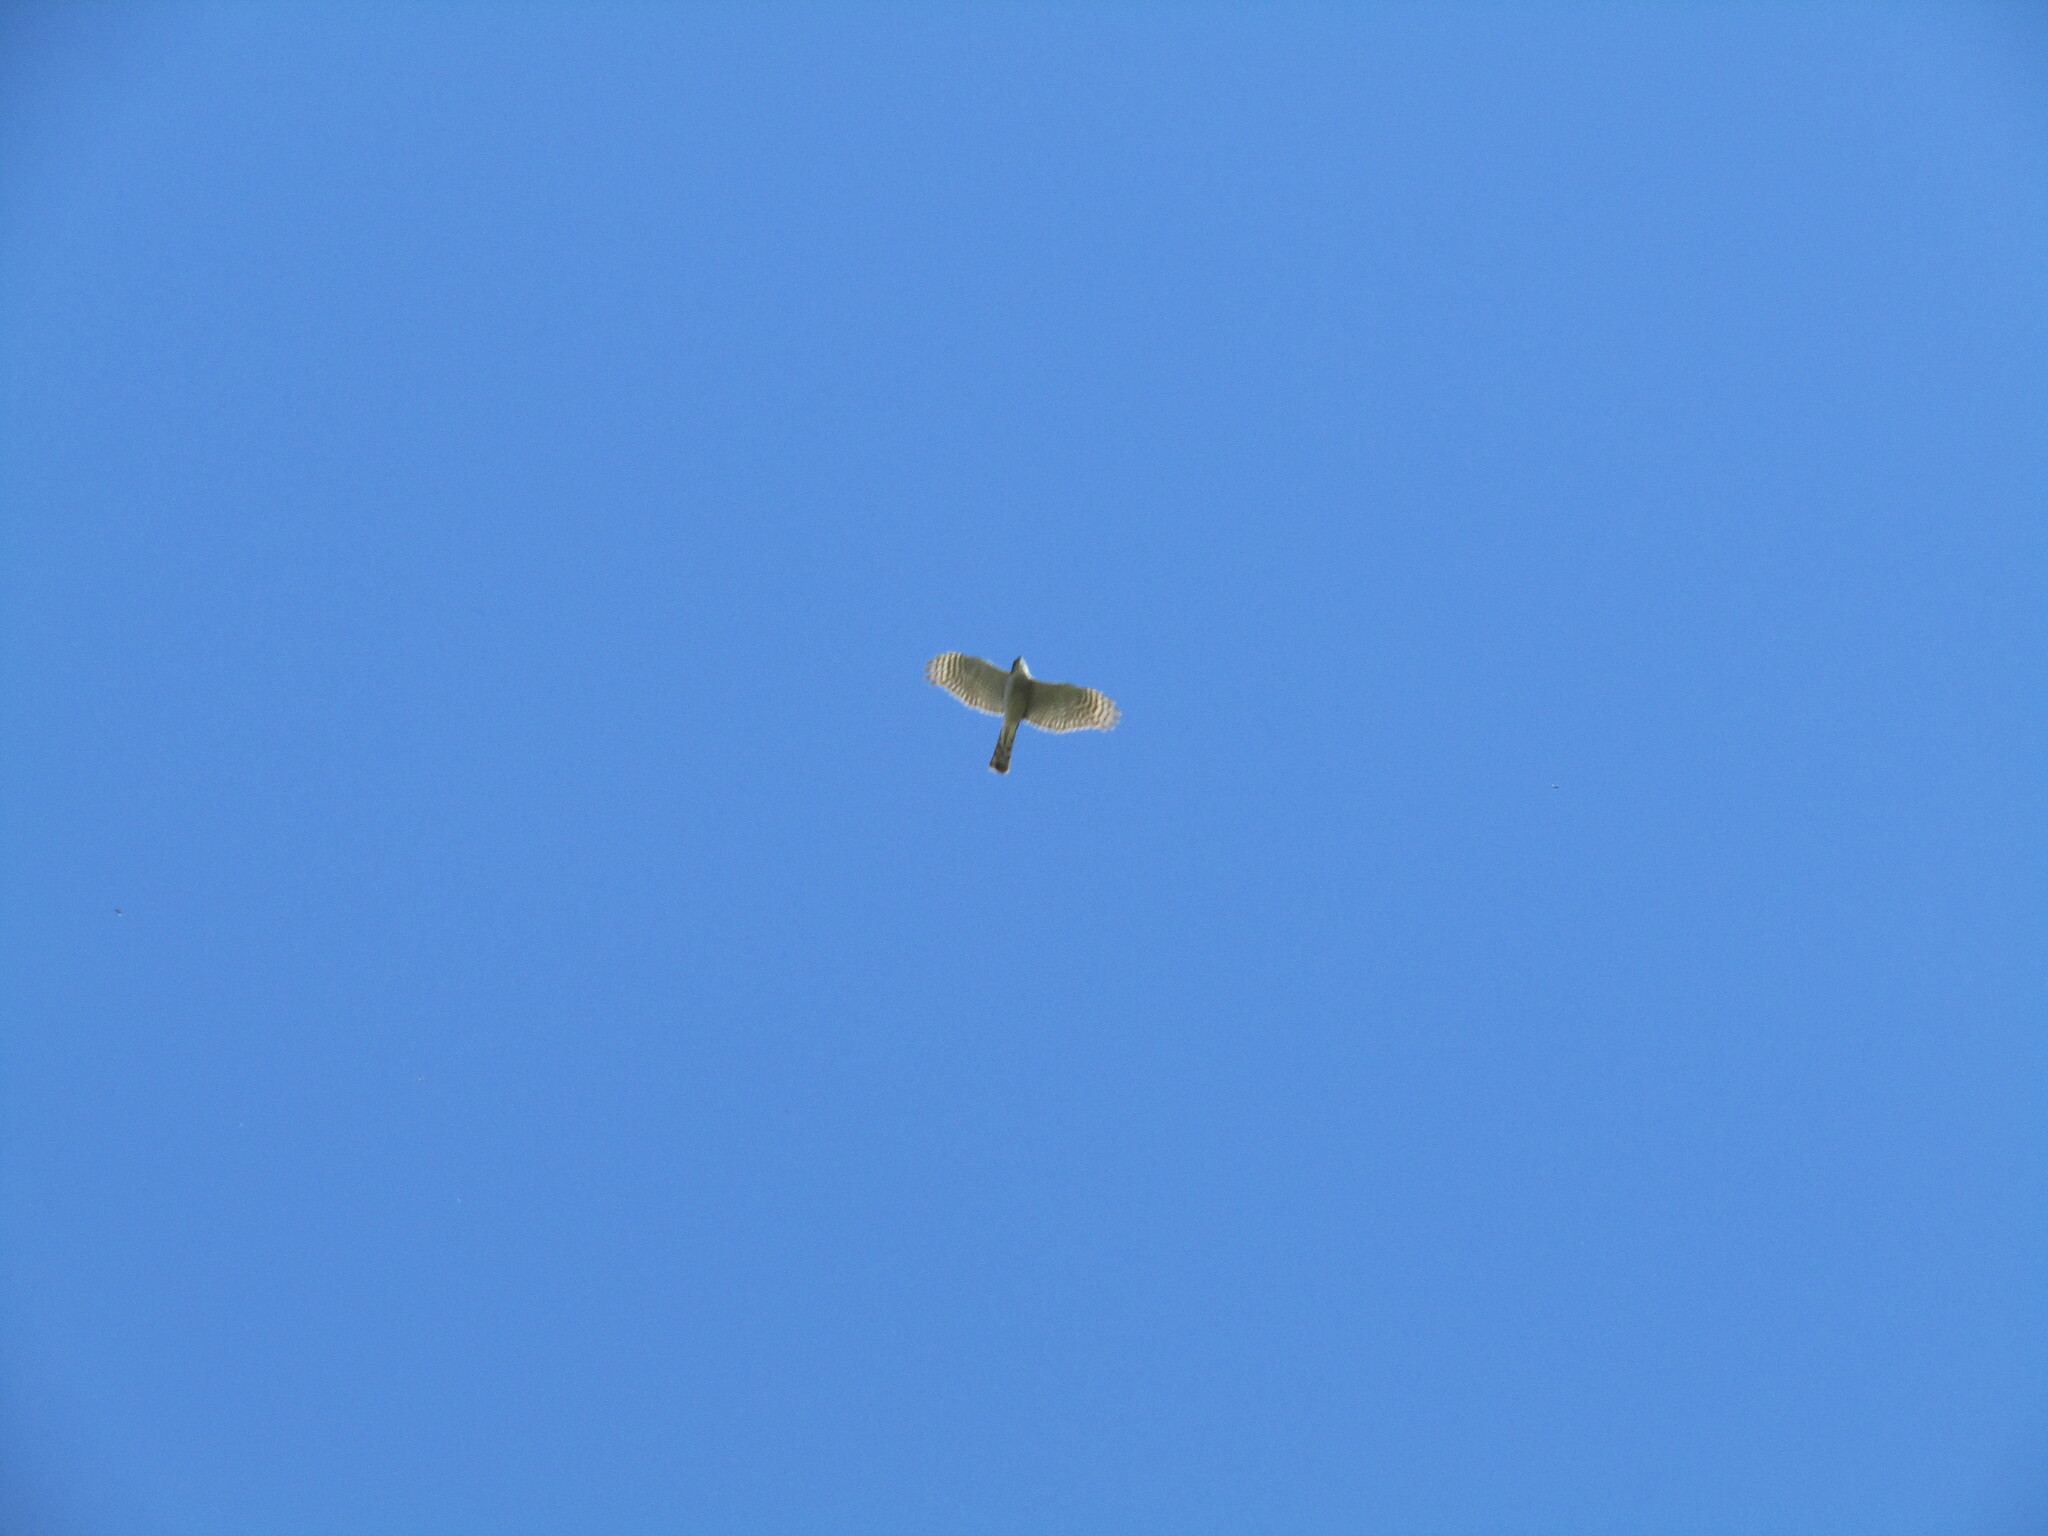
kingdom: Animalia
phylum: Chordata
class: Aves
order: Accipitriformes
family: Accipitridae
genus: Accipiter
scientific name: Accipiter gentilis
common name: Northern goshawk
